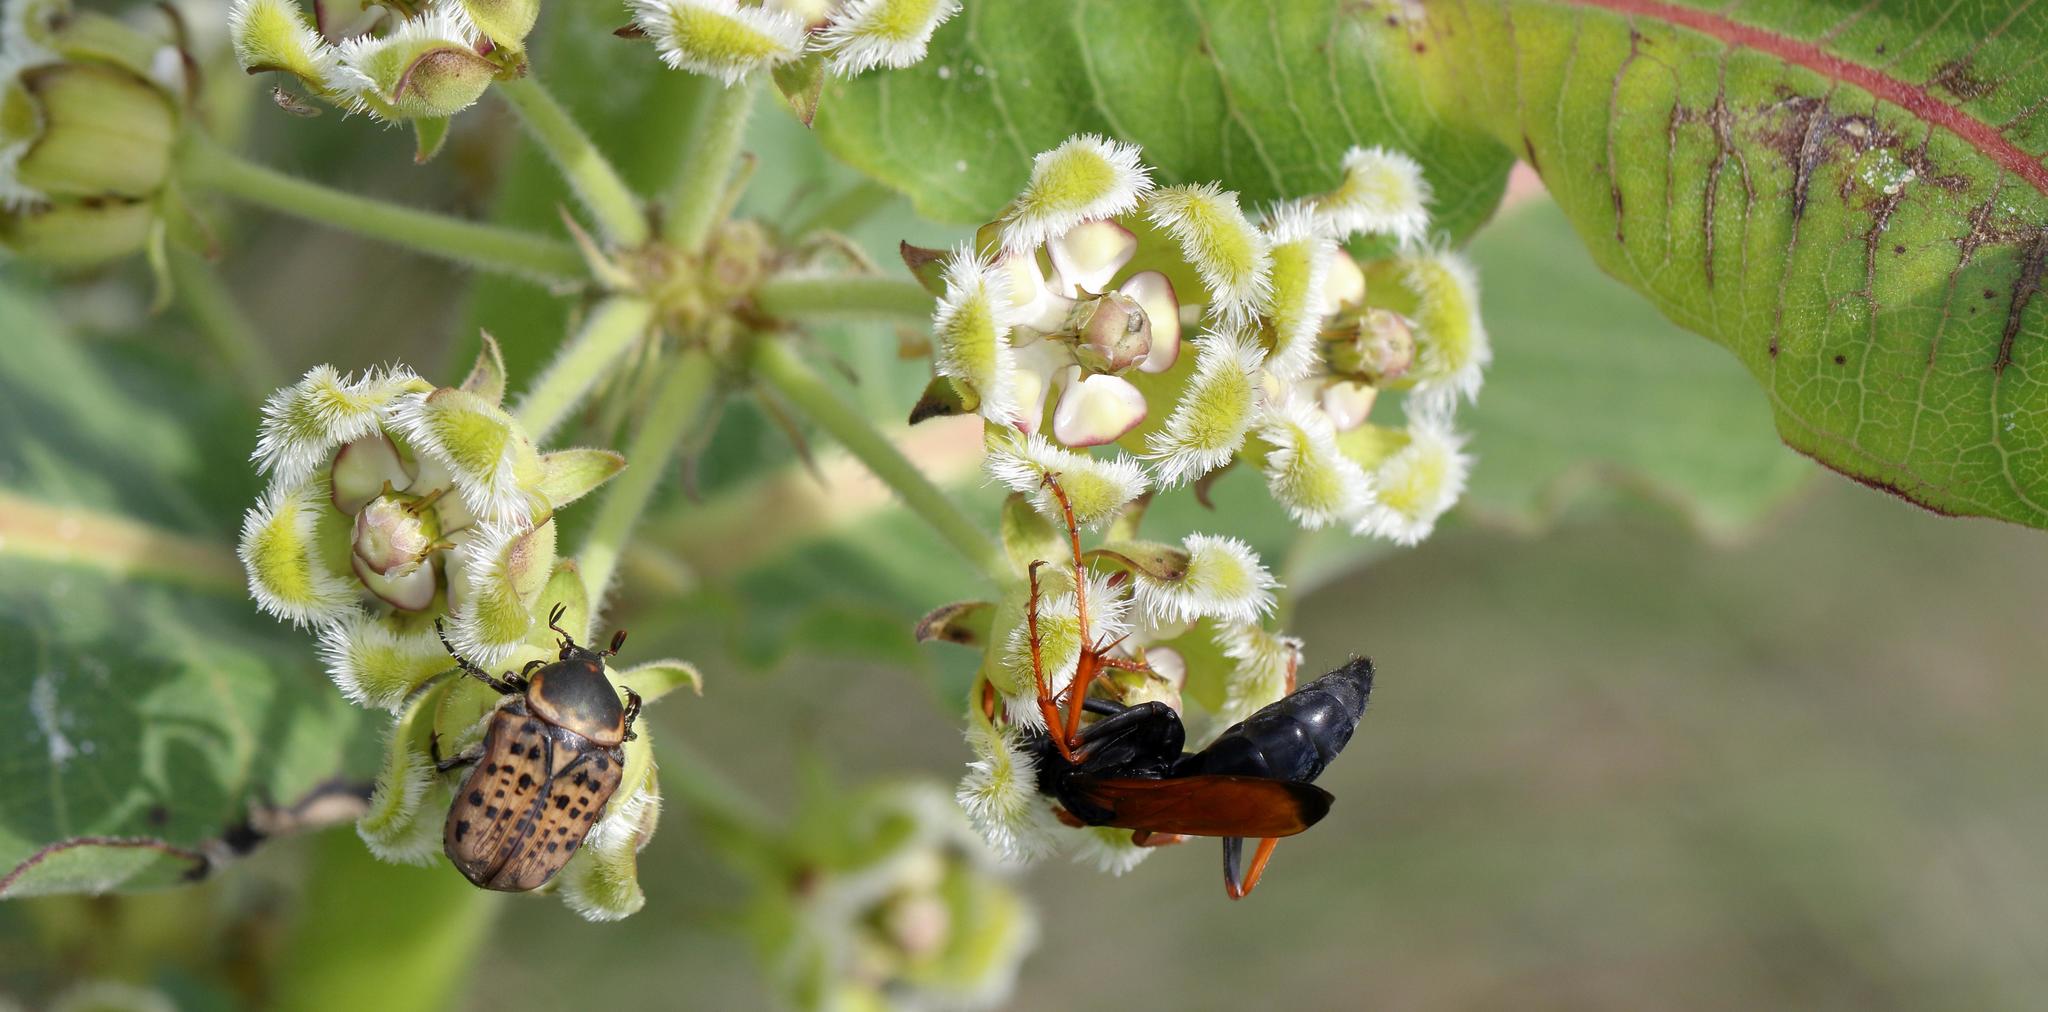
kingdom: Animalia
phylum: Arthropoda
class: Insecta
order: Coleoptera
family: Scarabaeidae
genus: Atrichelaphinis
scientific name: Atrichelaphinis tigrina
